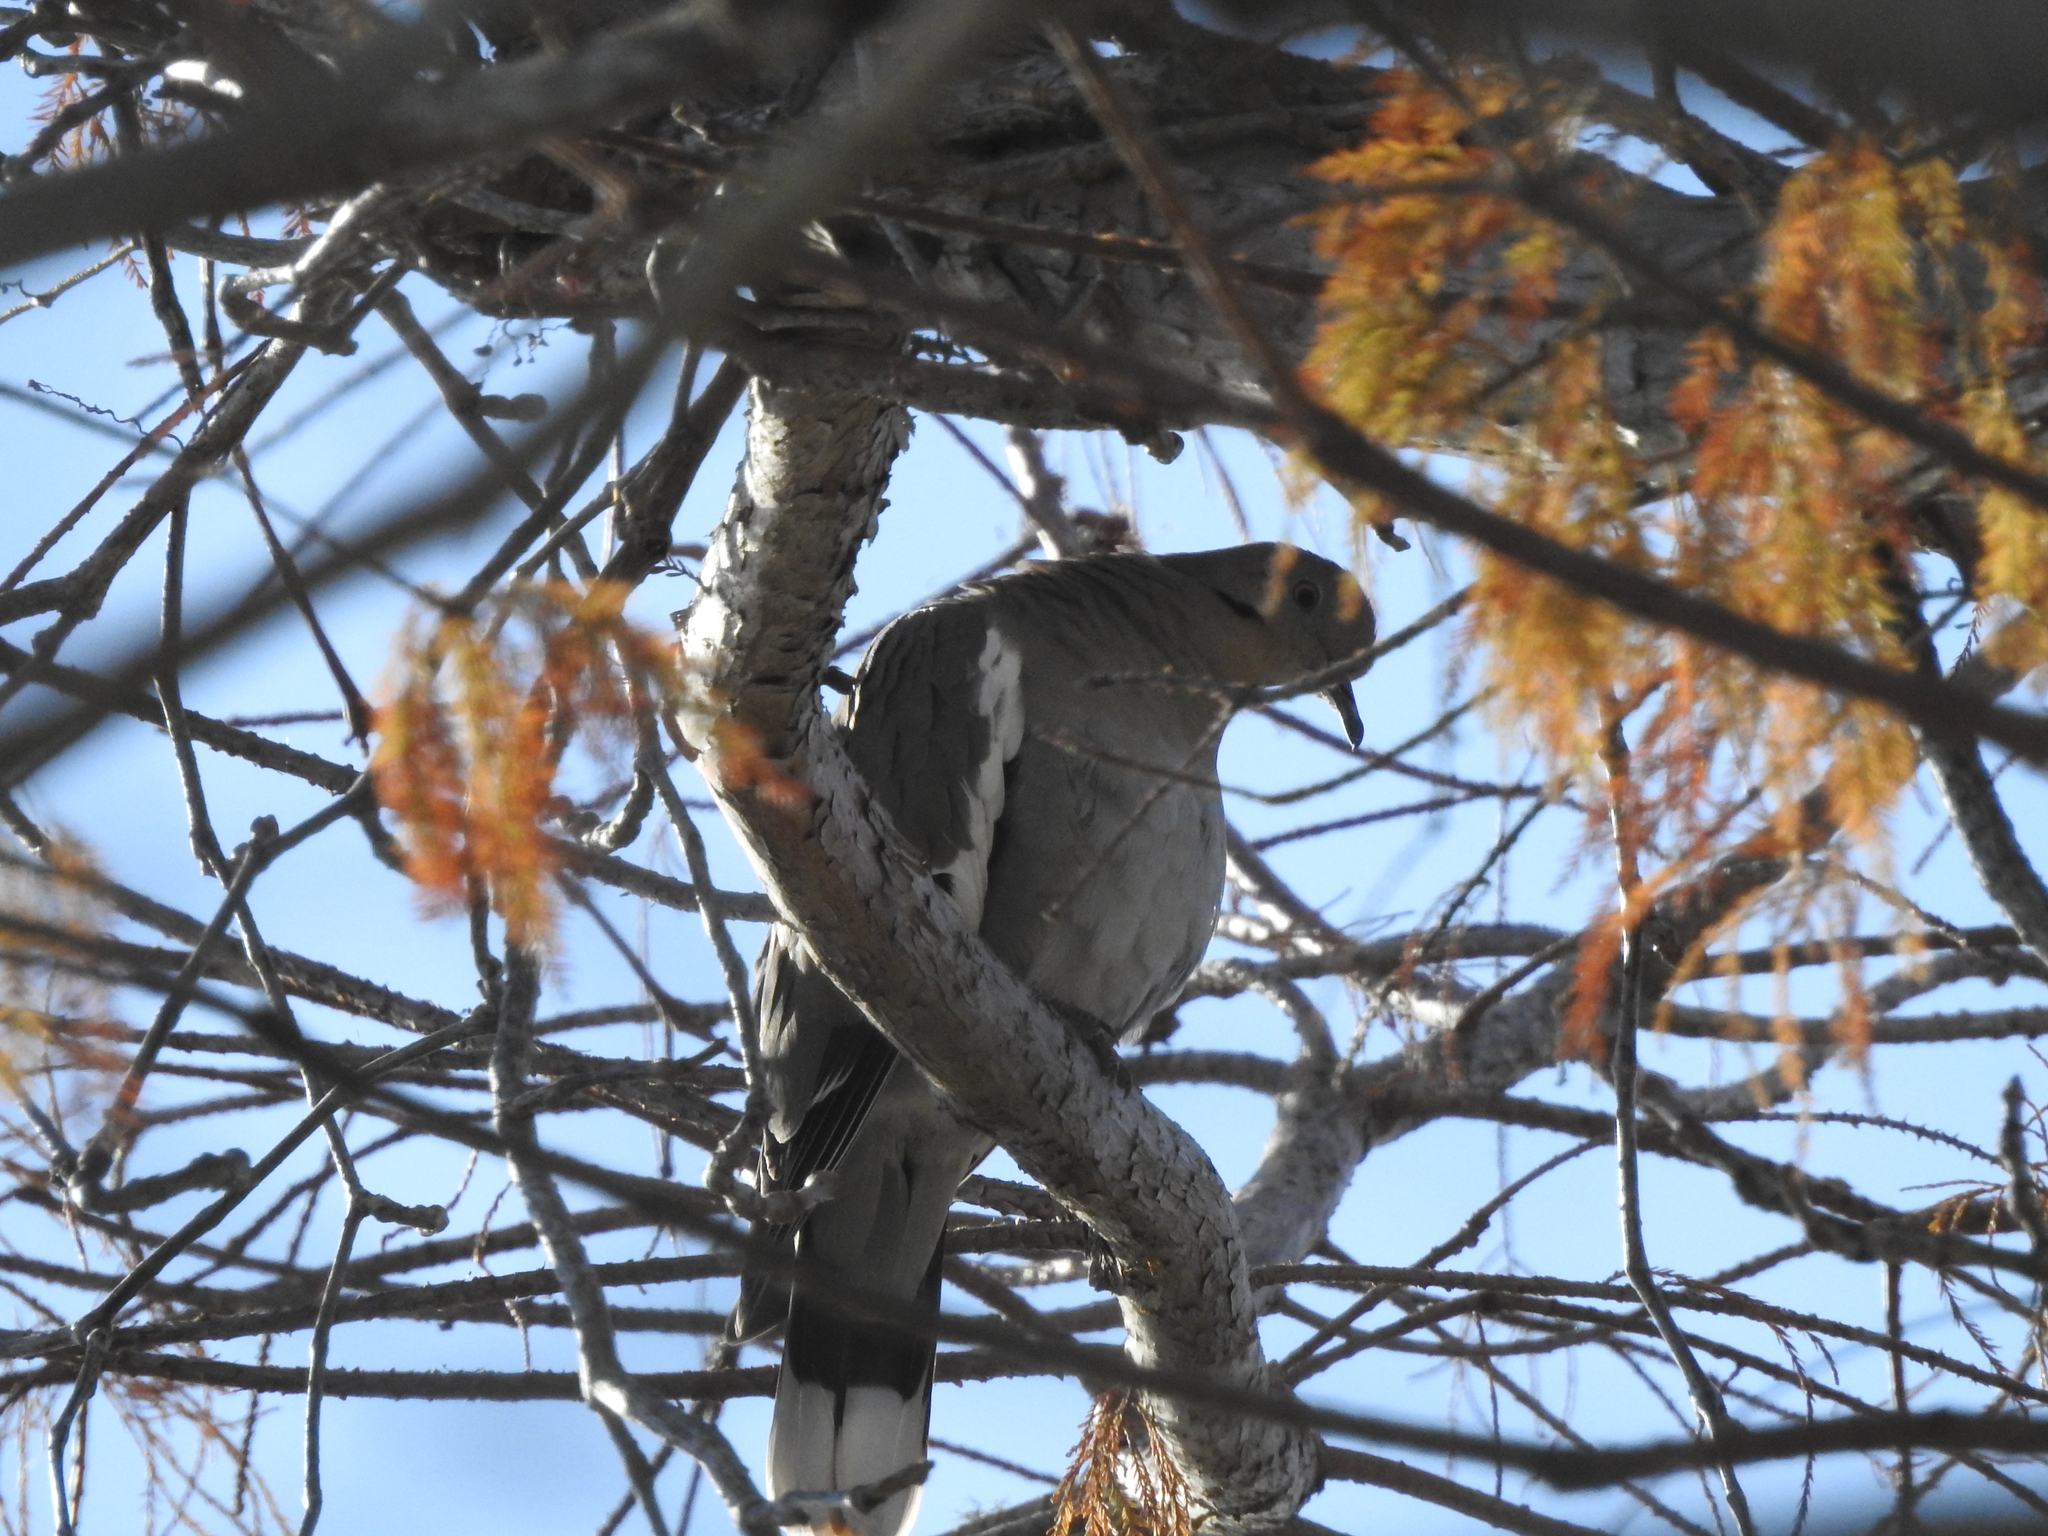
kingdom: Animalia
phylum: Chordata
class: Aves
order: Columbiformes
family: Columbidae
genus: Zenaida
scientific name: Zenaida asiatica
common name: White-winged dove
